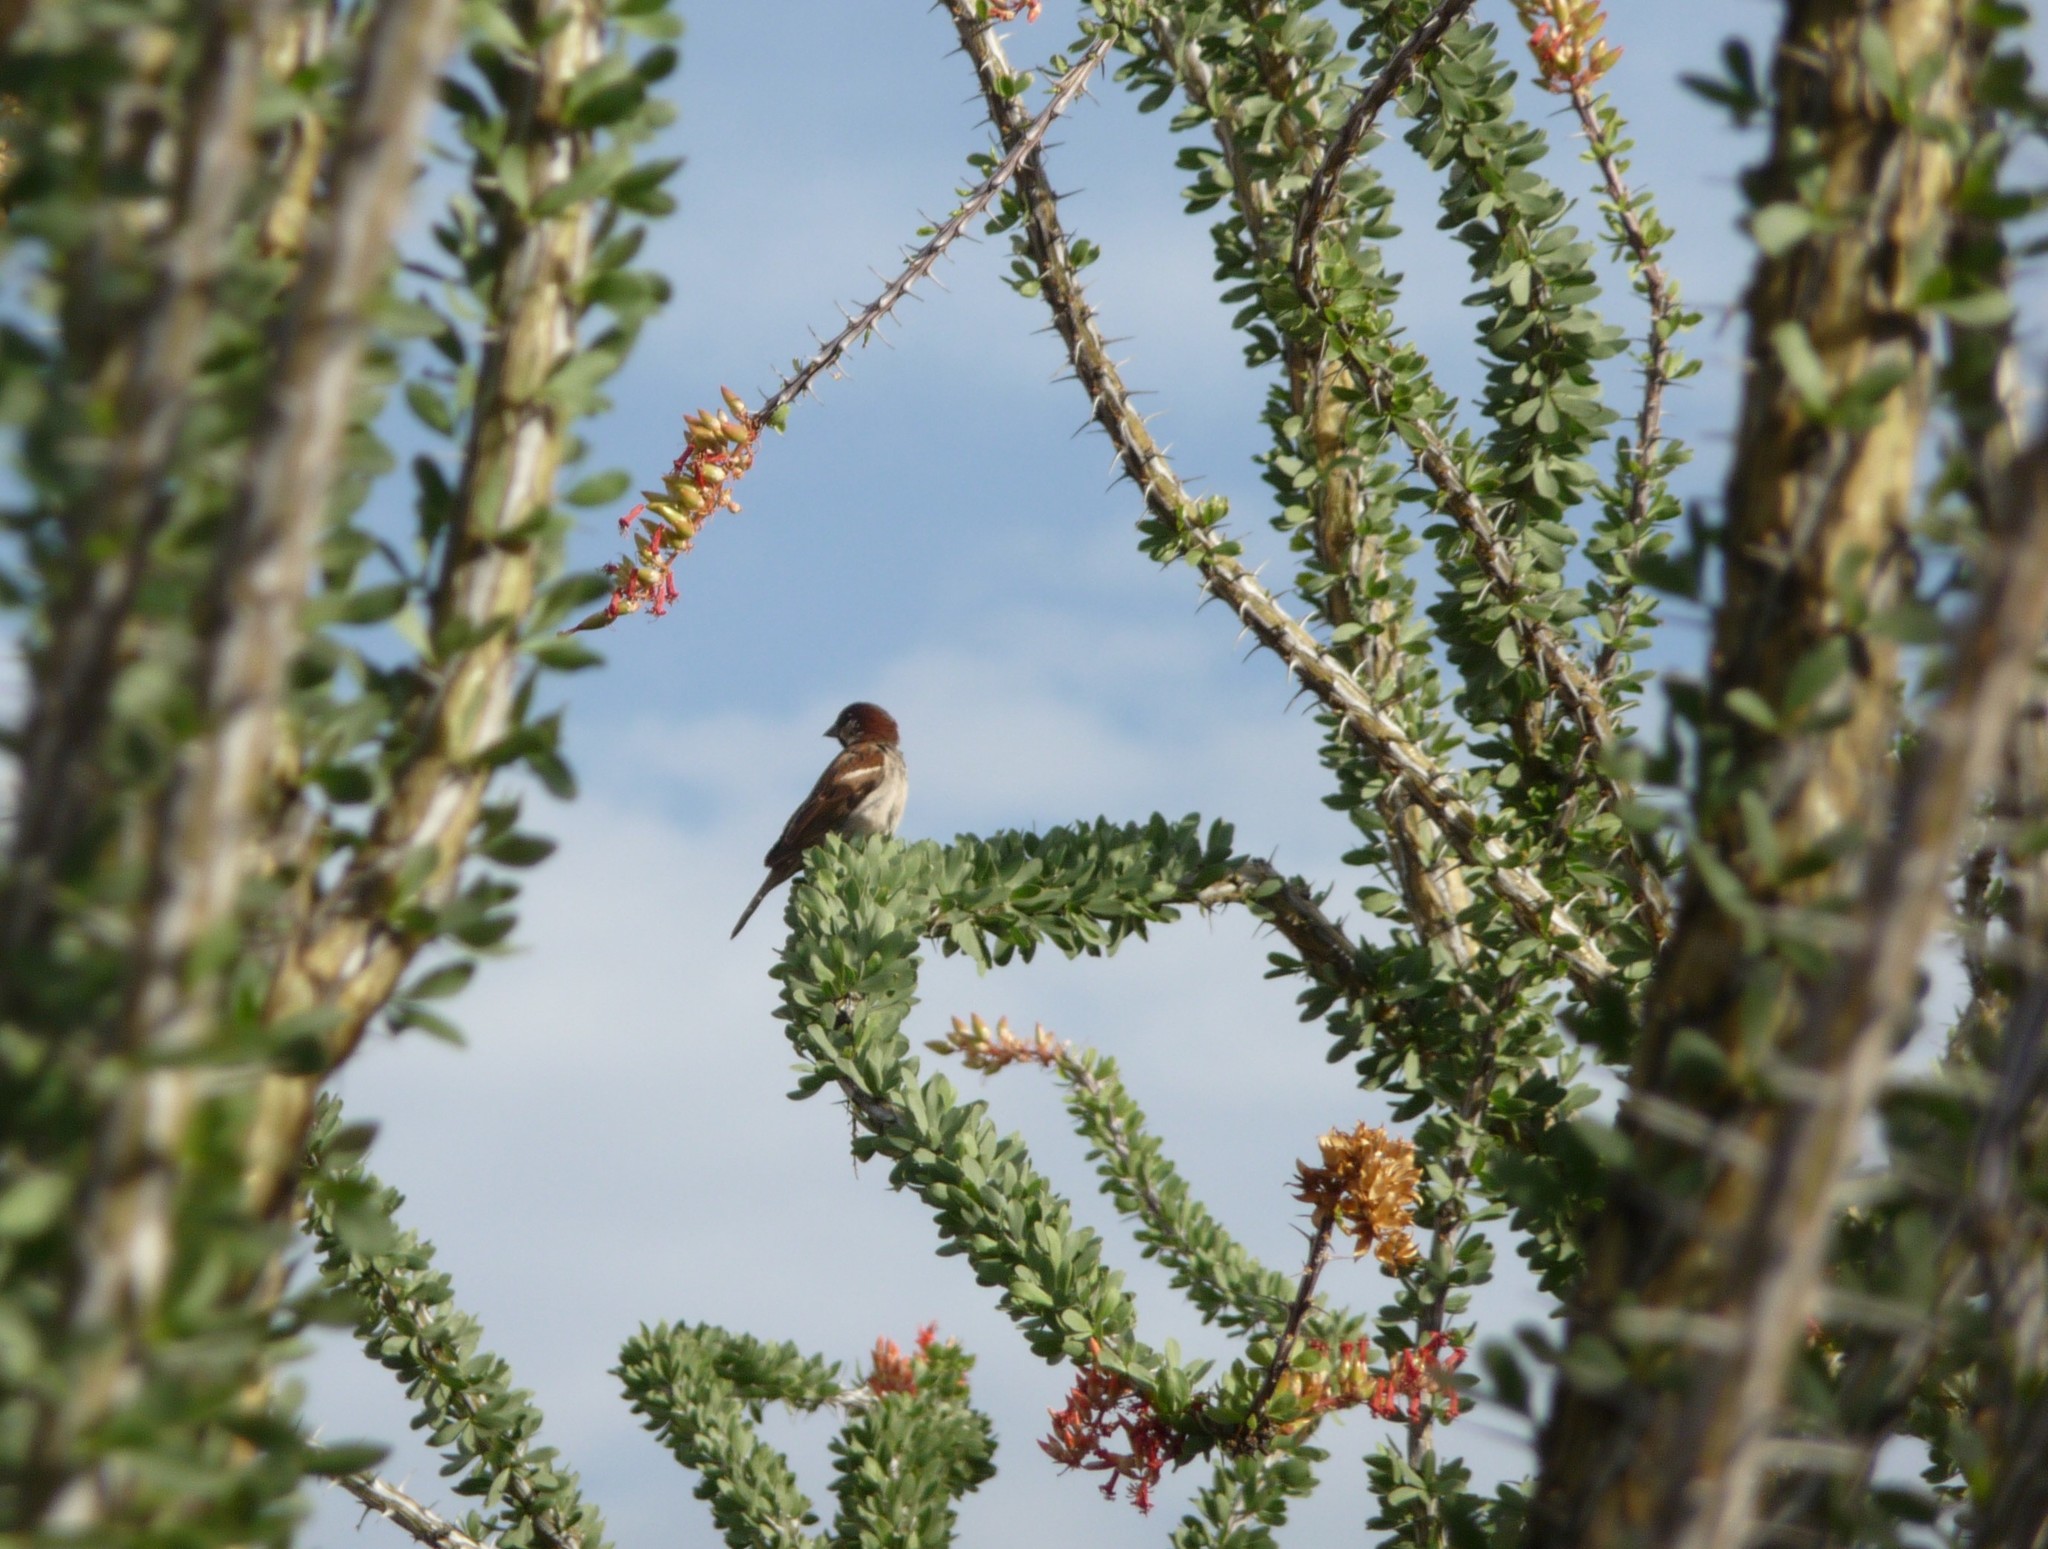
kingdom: Animalia
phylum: Chordata
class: Aves
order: Passeriformes
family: Passeridae
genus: Passer
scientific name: Passer domesticus
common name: House sparrow
